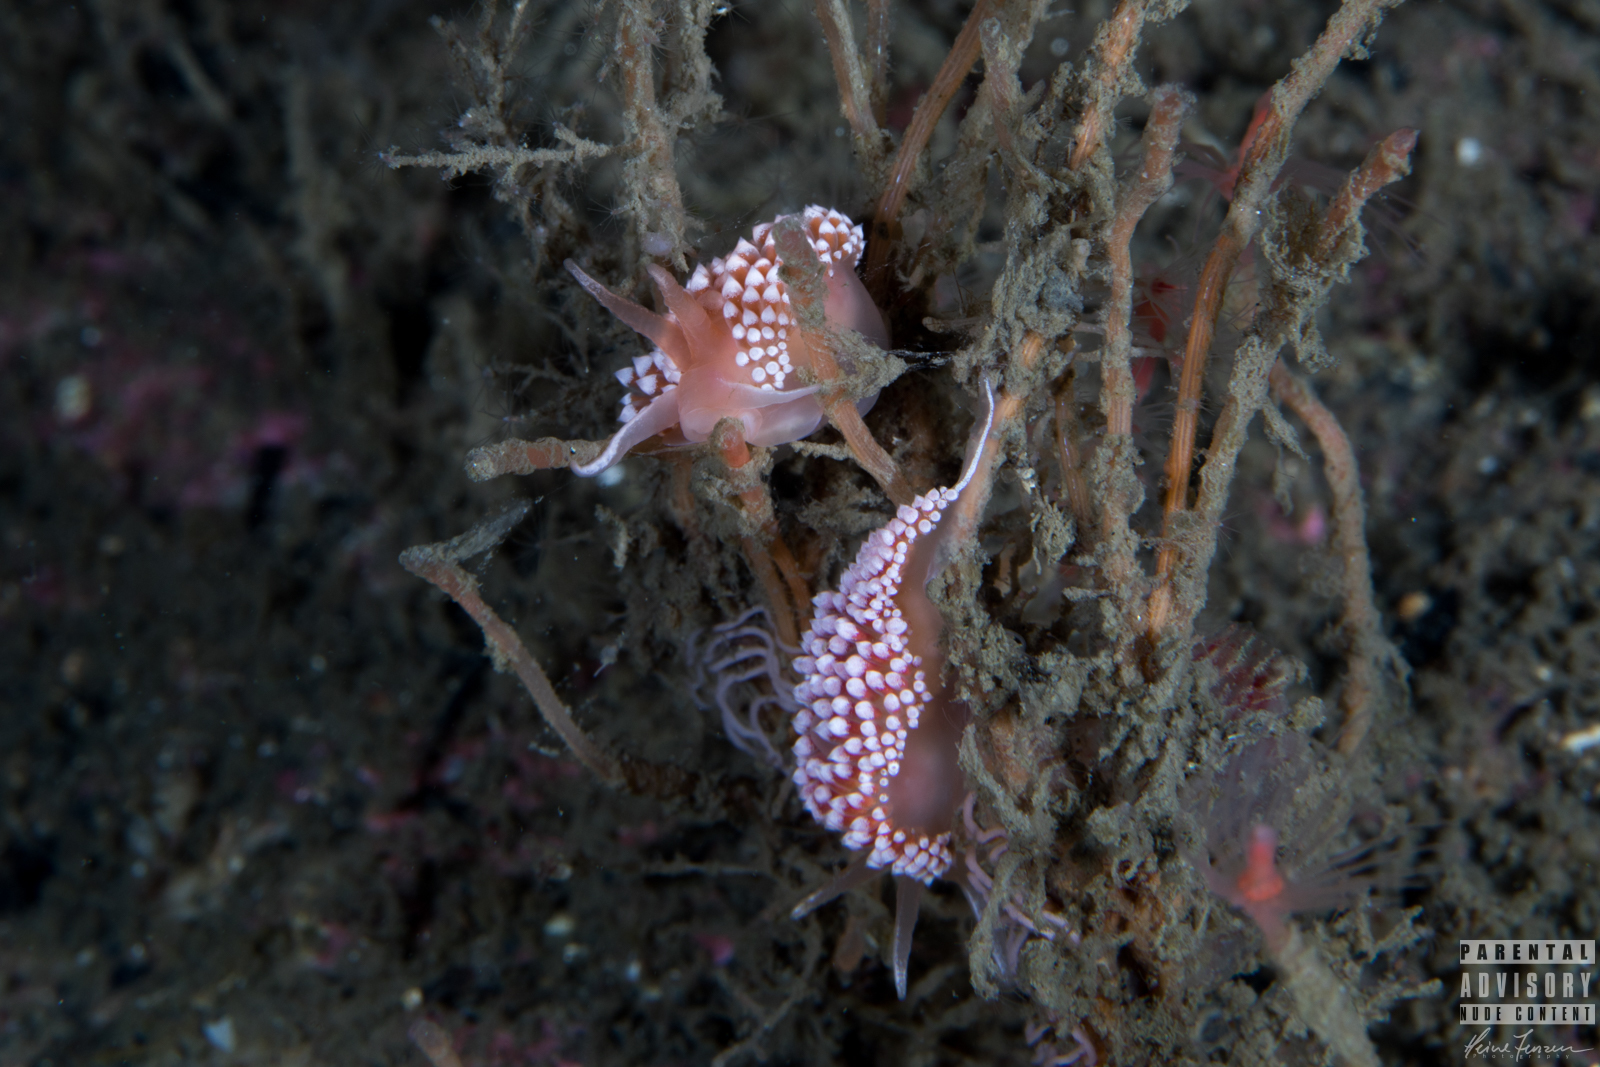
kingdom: Animalia
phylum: Mollusca
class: Gastropoda
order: Nudibranchia
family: Coryphellidae
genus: Coryphella
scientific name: Coryphella verrucosa
